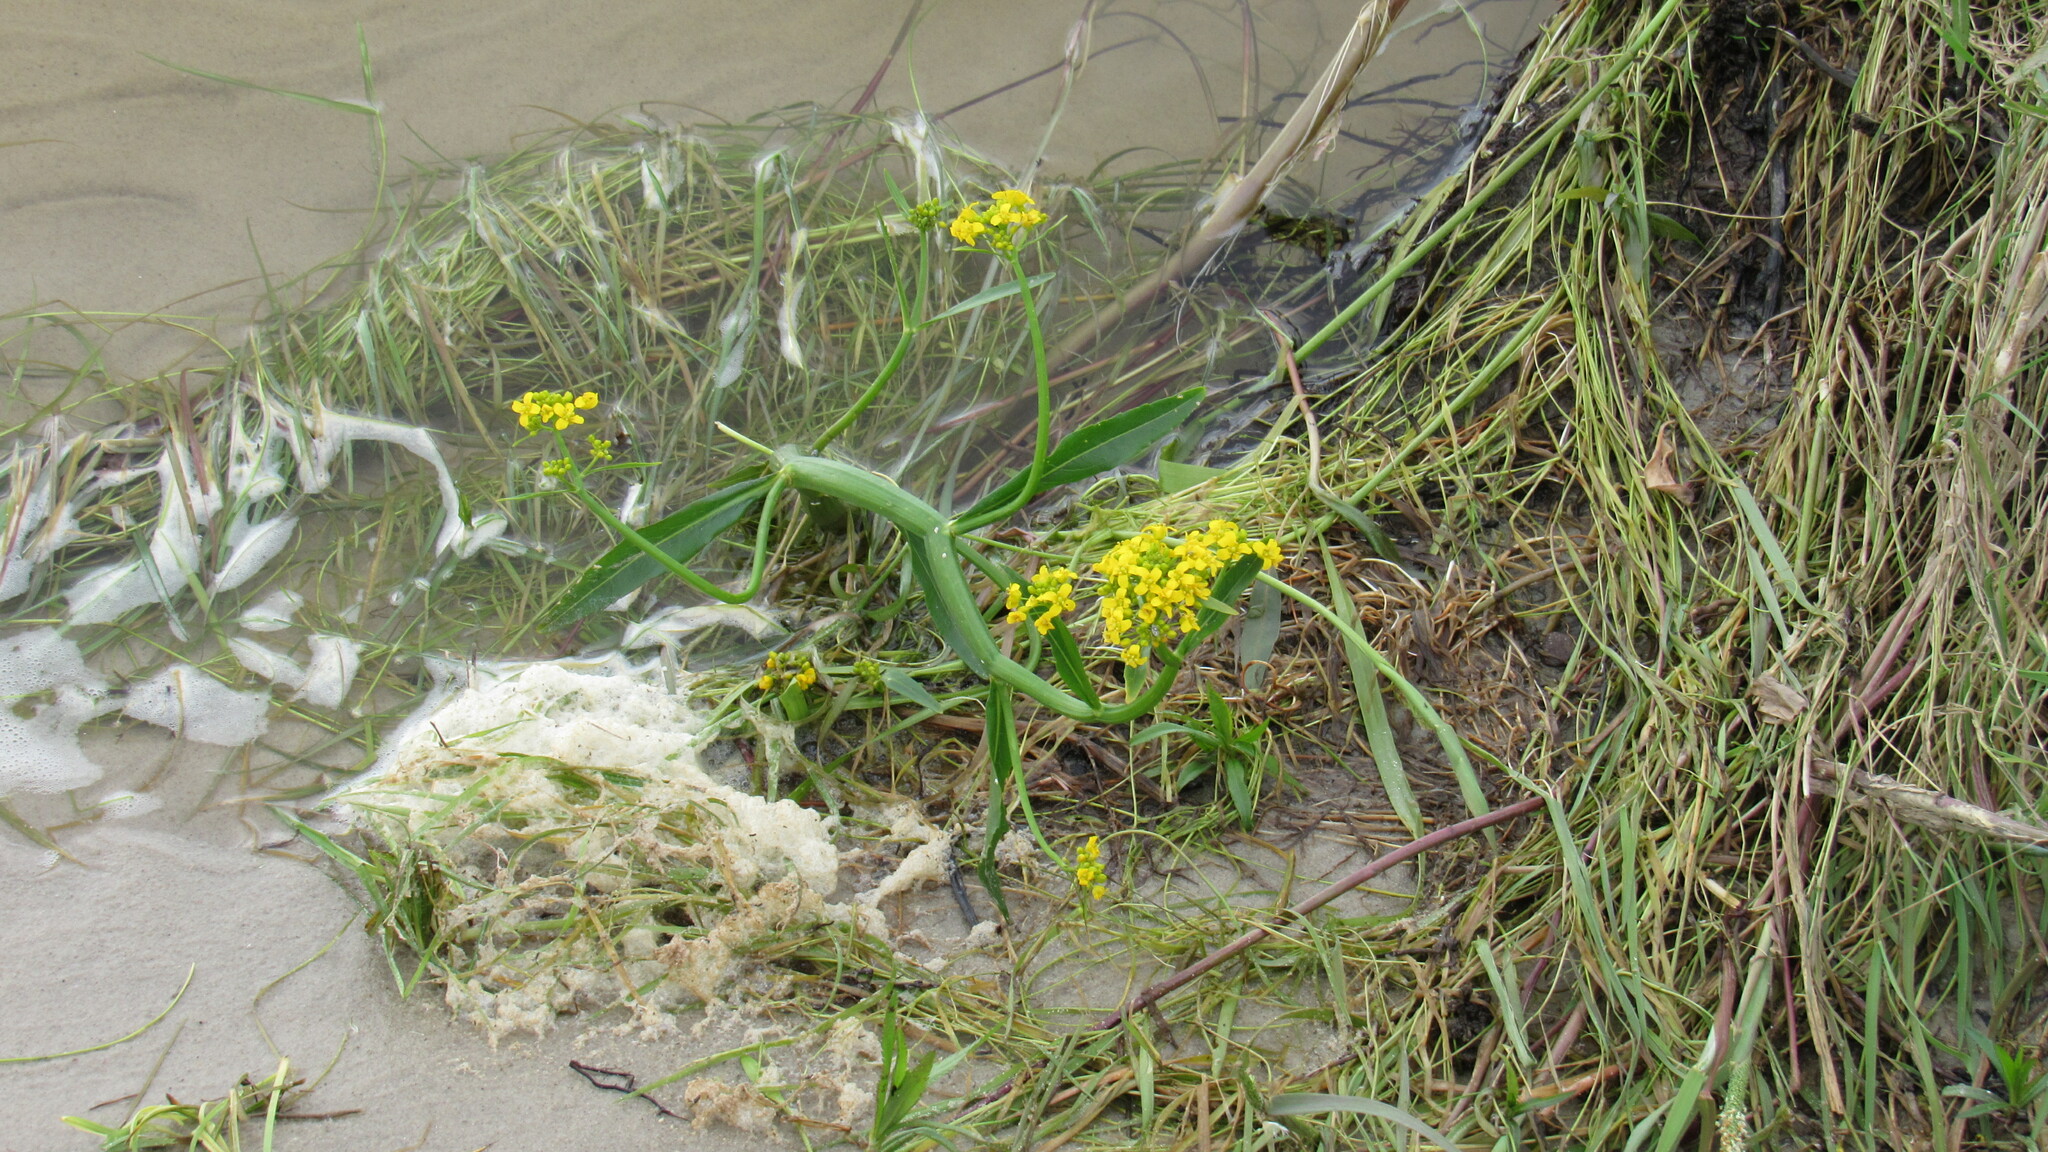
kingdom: Plantae
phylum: Tracheophyta
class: Magnoliopsida
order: Brassicales
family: Brassicaceae
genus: Rorippa
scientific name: Rorippa amphibia
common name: Great yellow-cress
